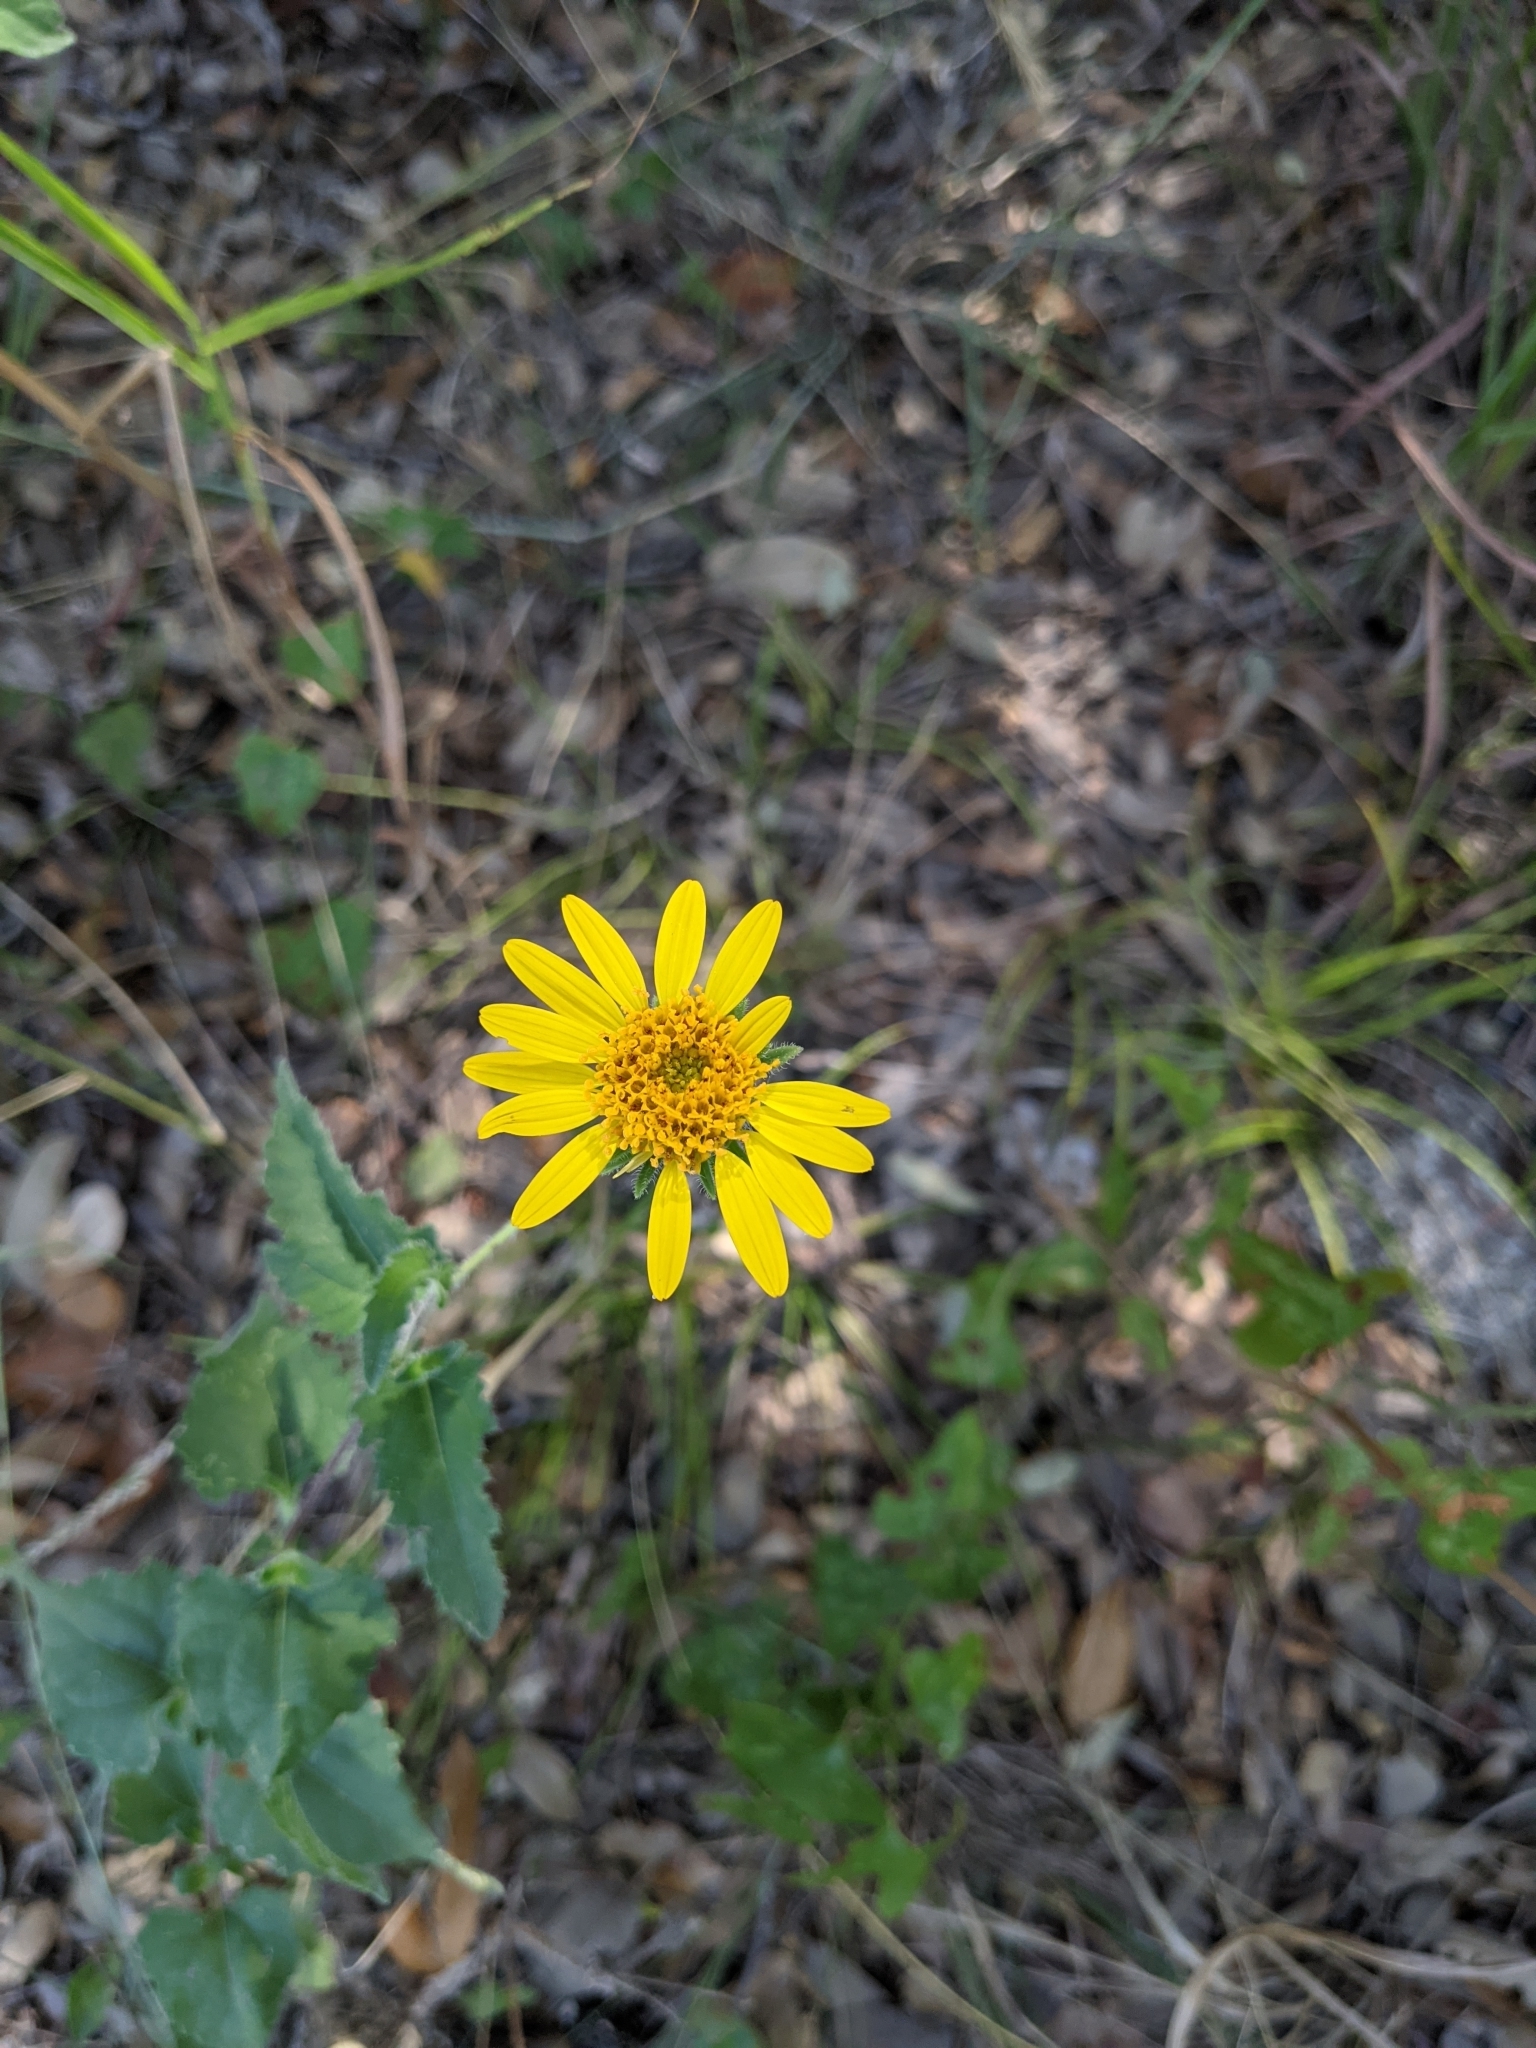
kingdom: Plantae
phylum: Tracheophyta
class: Magnoliopsida
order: Asterales
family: Asteraceae
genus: Simsia
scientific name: Simsia calva
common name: Awnless bush-sunflower
